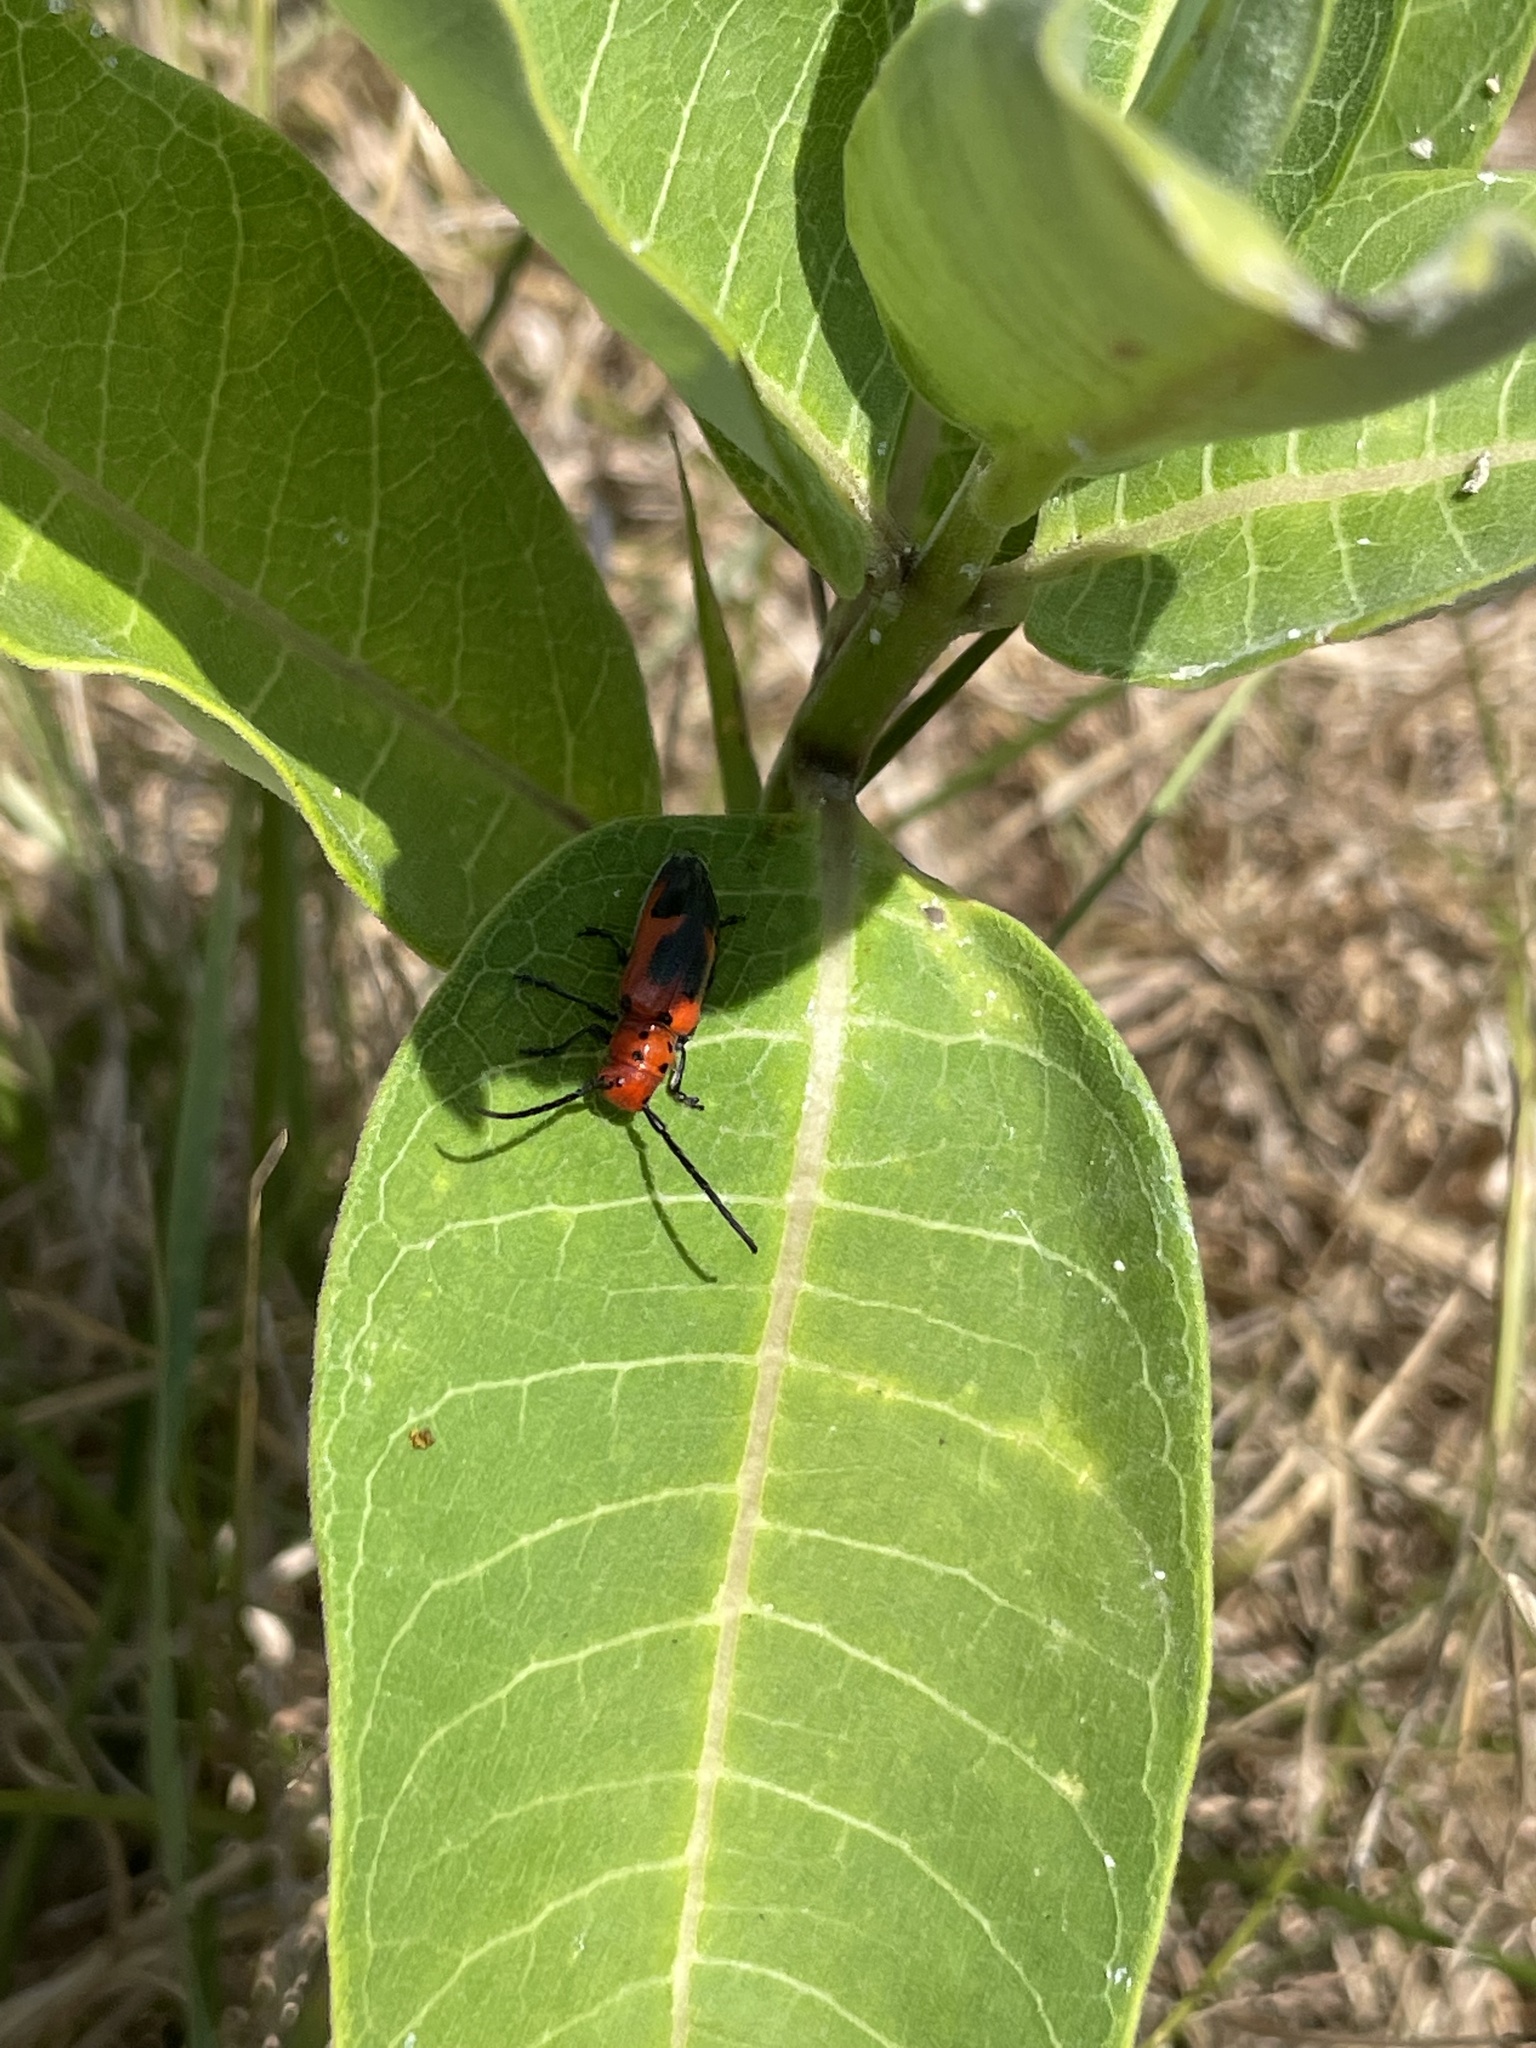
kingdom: Animalia
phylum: Arthropoda
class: Insecta
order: Coleoptera
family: Cerambycidae
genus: Tetraopes
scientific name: Tetraopes melanurus
